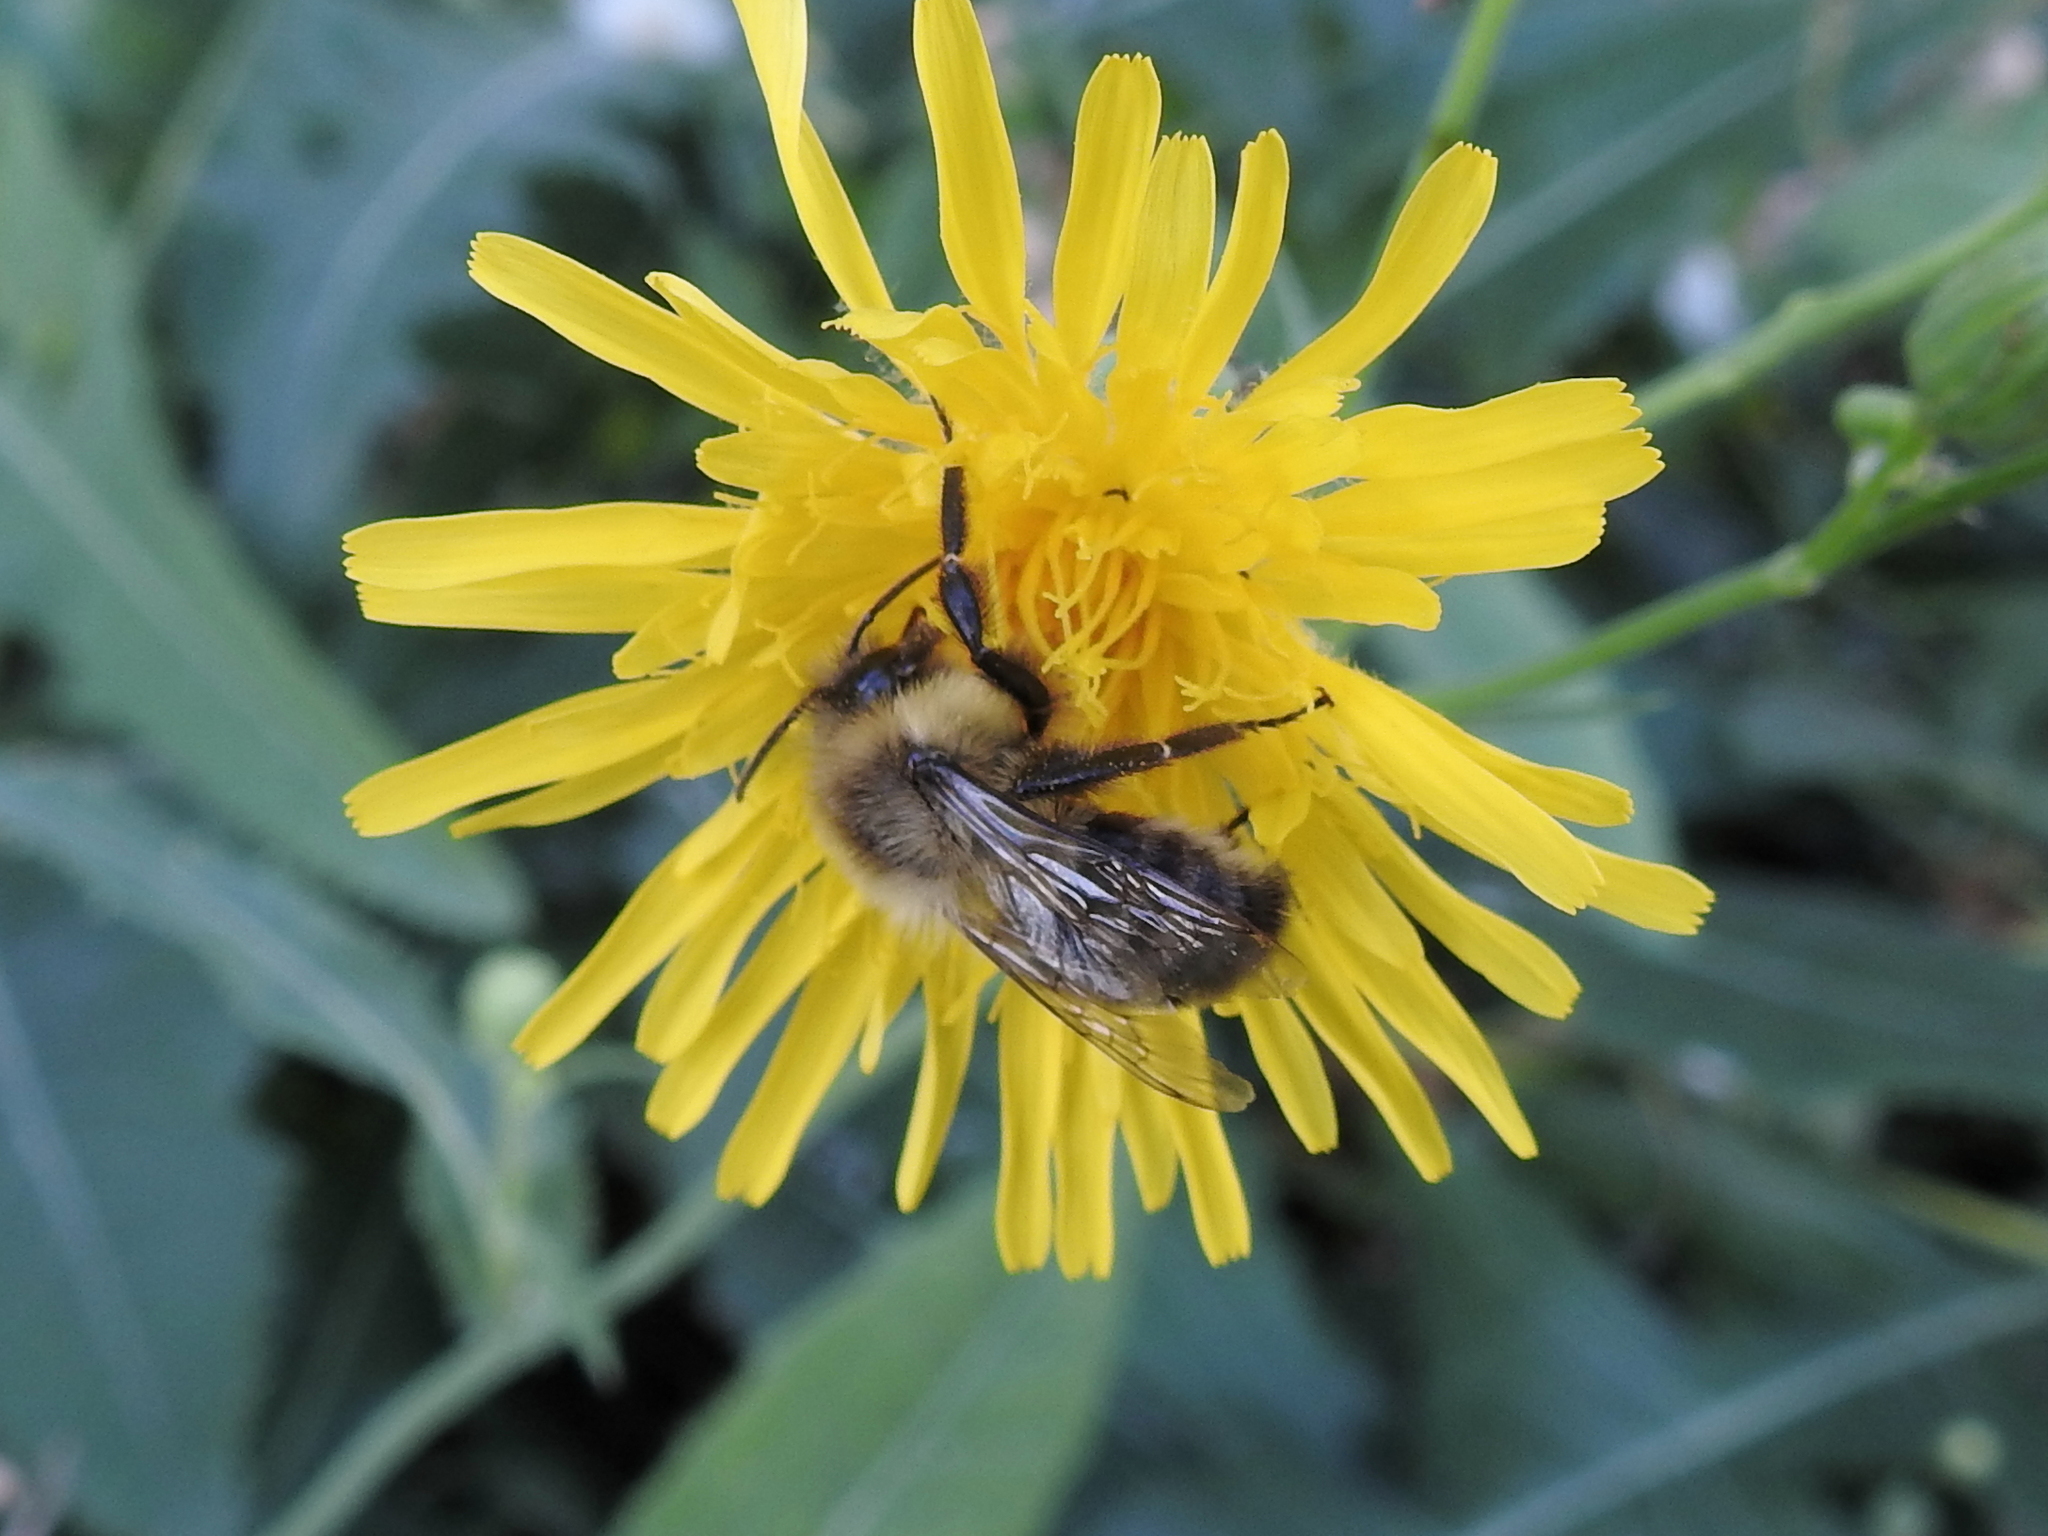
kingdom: Animalia
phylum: Arthropoda
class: Insecta
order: Hymenoptera
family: Apidae
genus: Bombus
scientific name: Bombus impatiens
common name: Common eastern bumble bee
